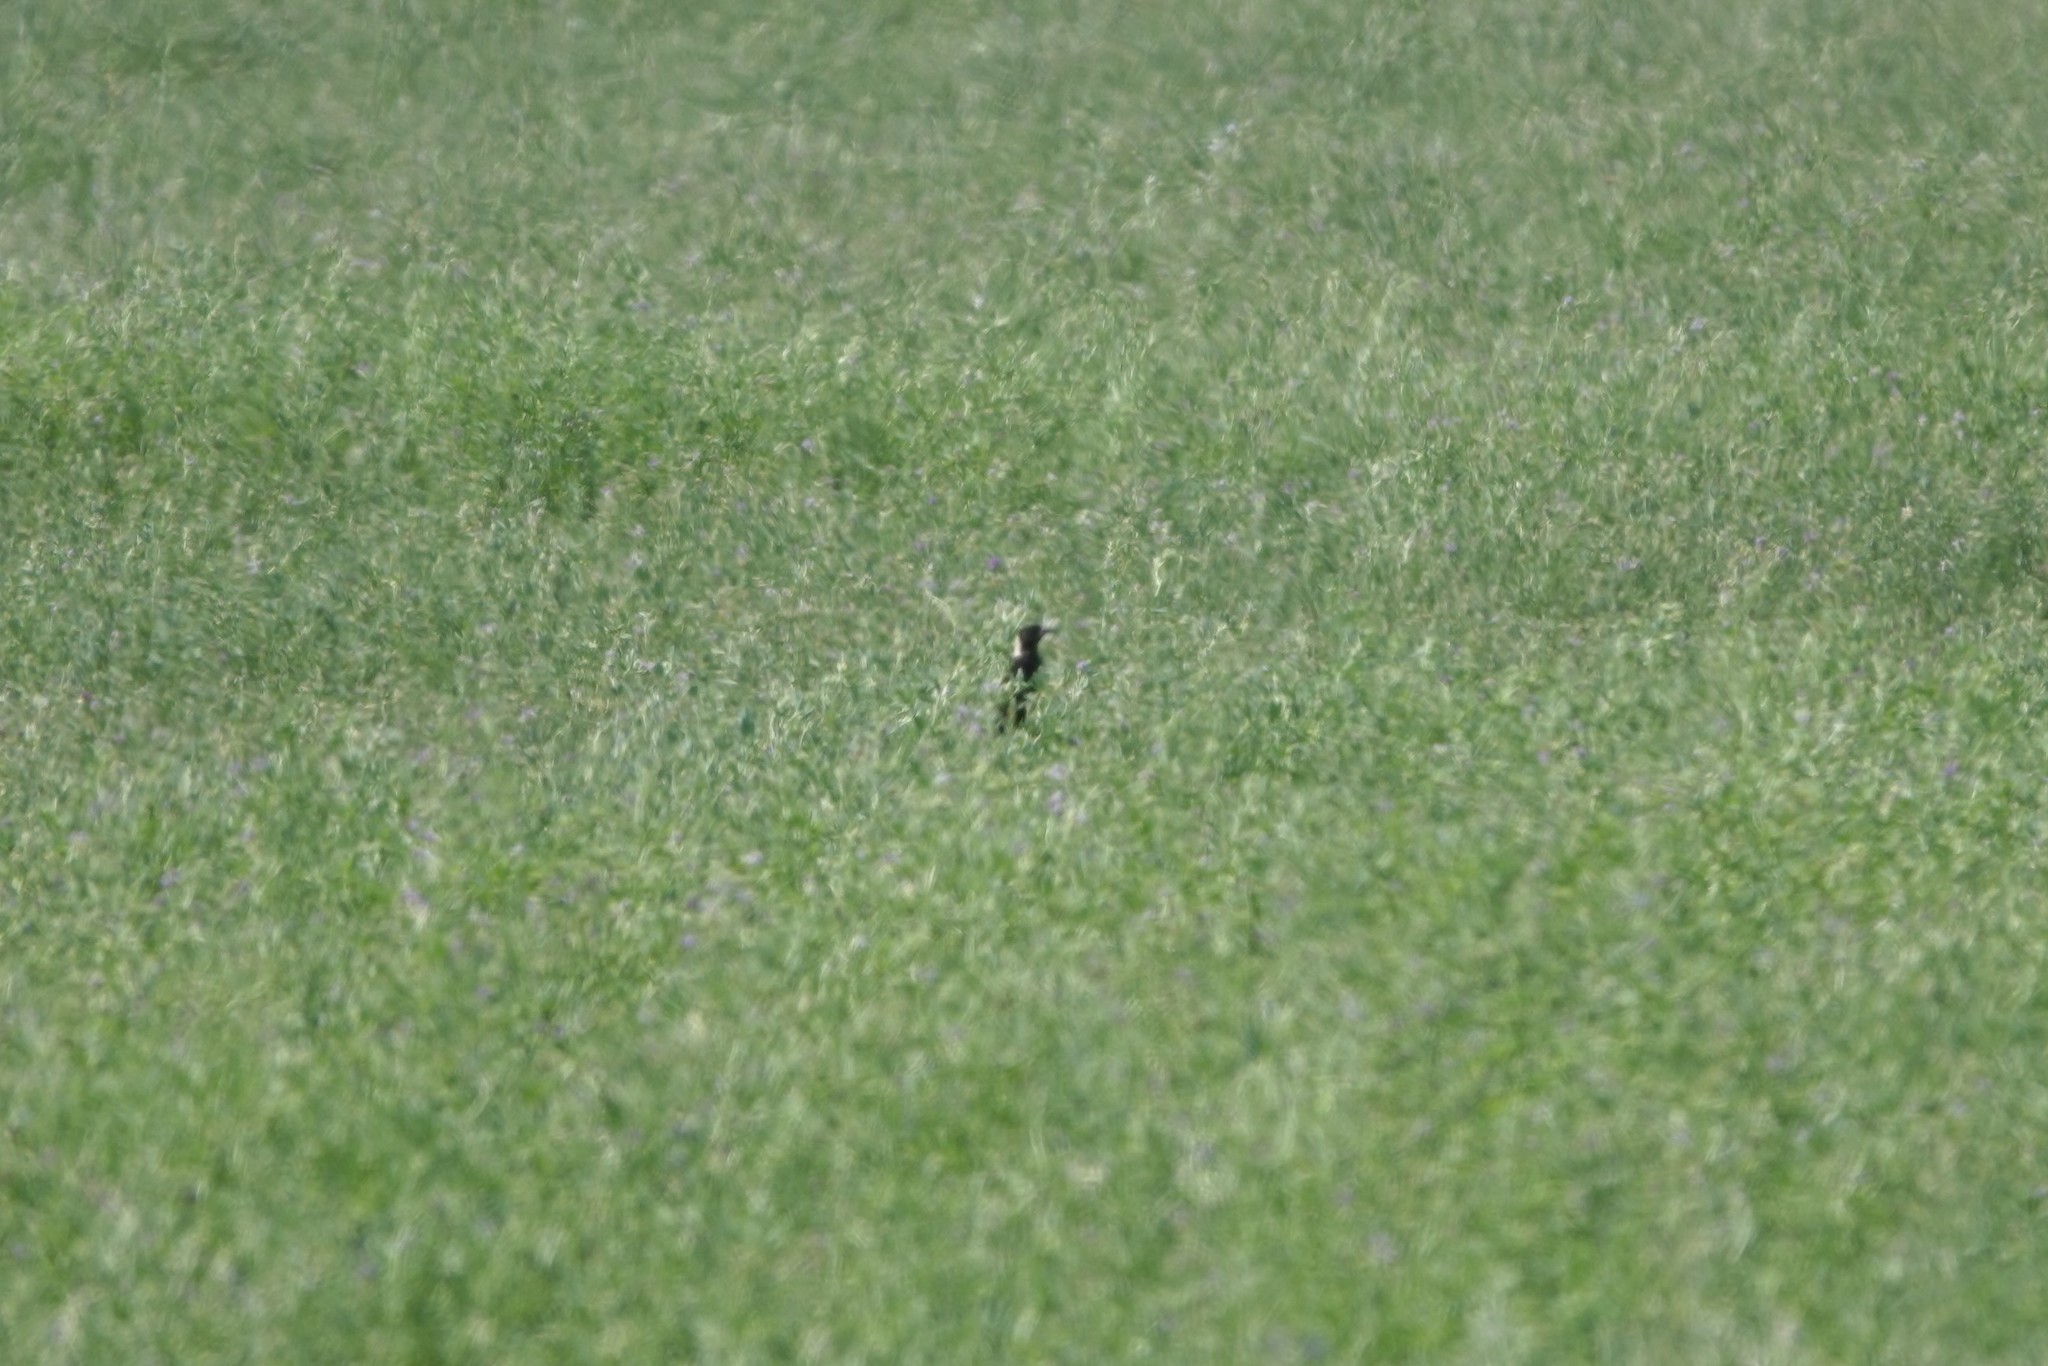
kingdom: Animalia
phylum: Chordata
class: Aves
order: Passeriformes
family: Icteridae
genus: Dolichonyx
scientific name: Dolichonyx oryzivorus
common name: Bobolink
